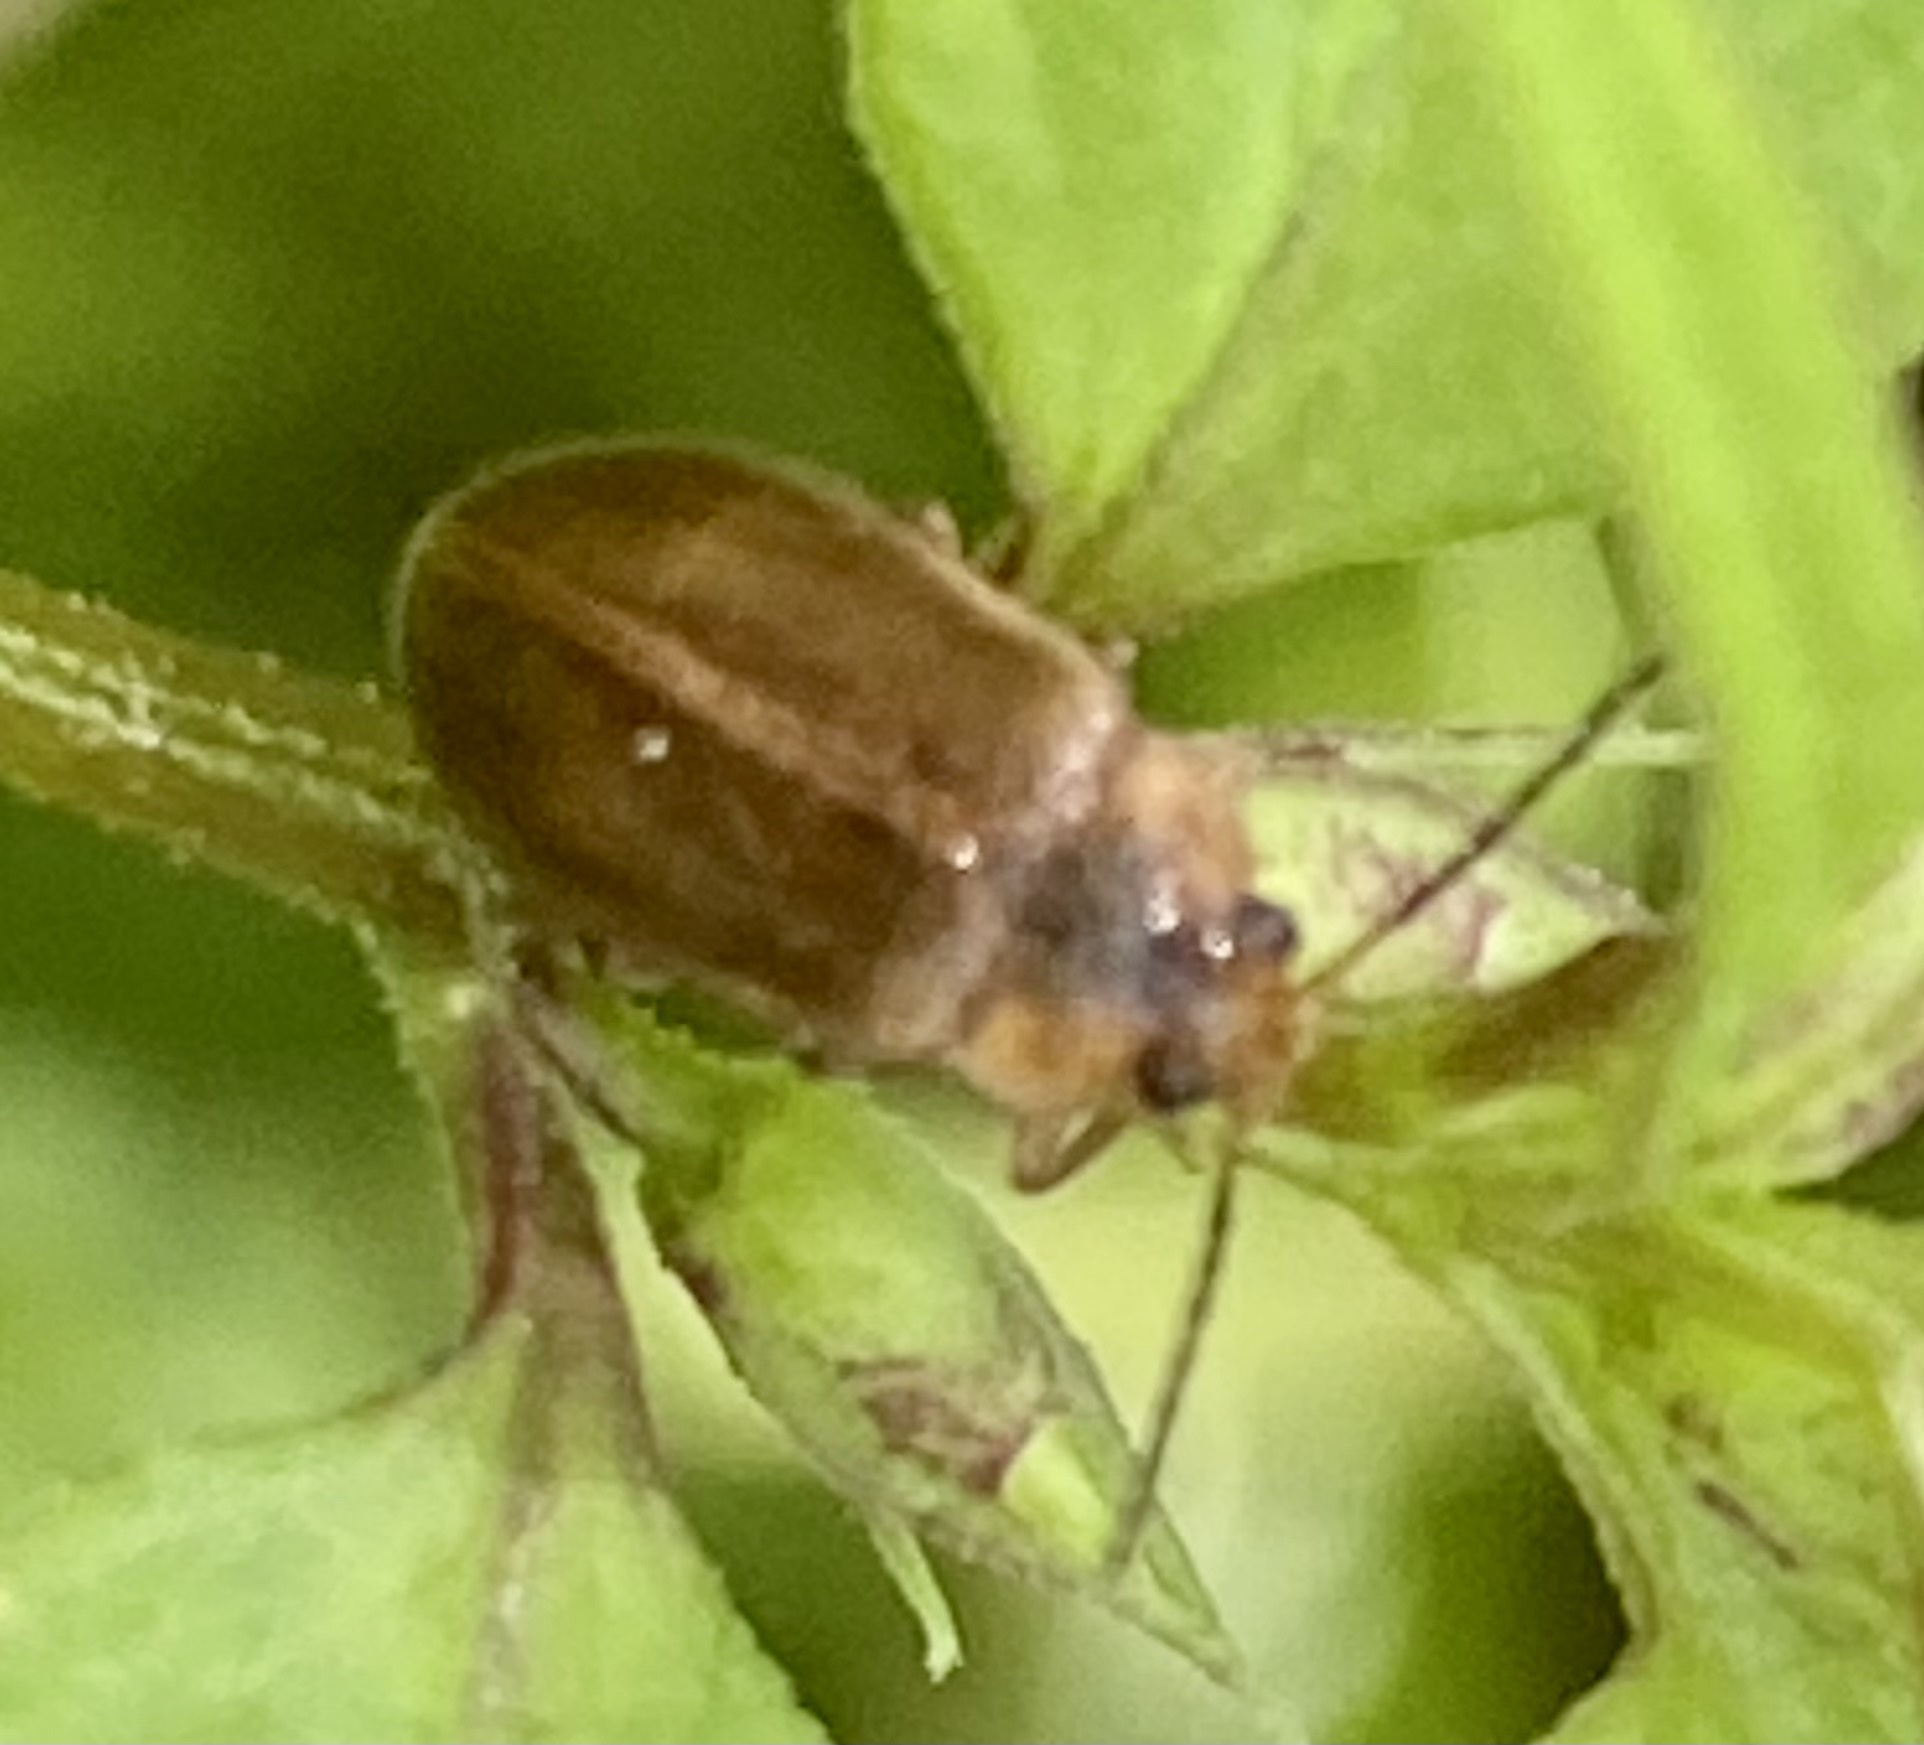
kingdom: Animalia
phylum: Arthropoda
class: Insecta
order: Coleoptera
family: Scirtidae
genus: Microcara
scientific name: Microcara testacea
